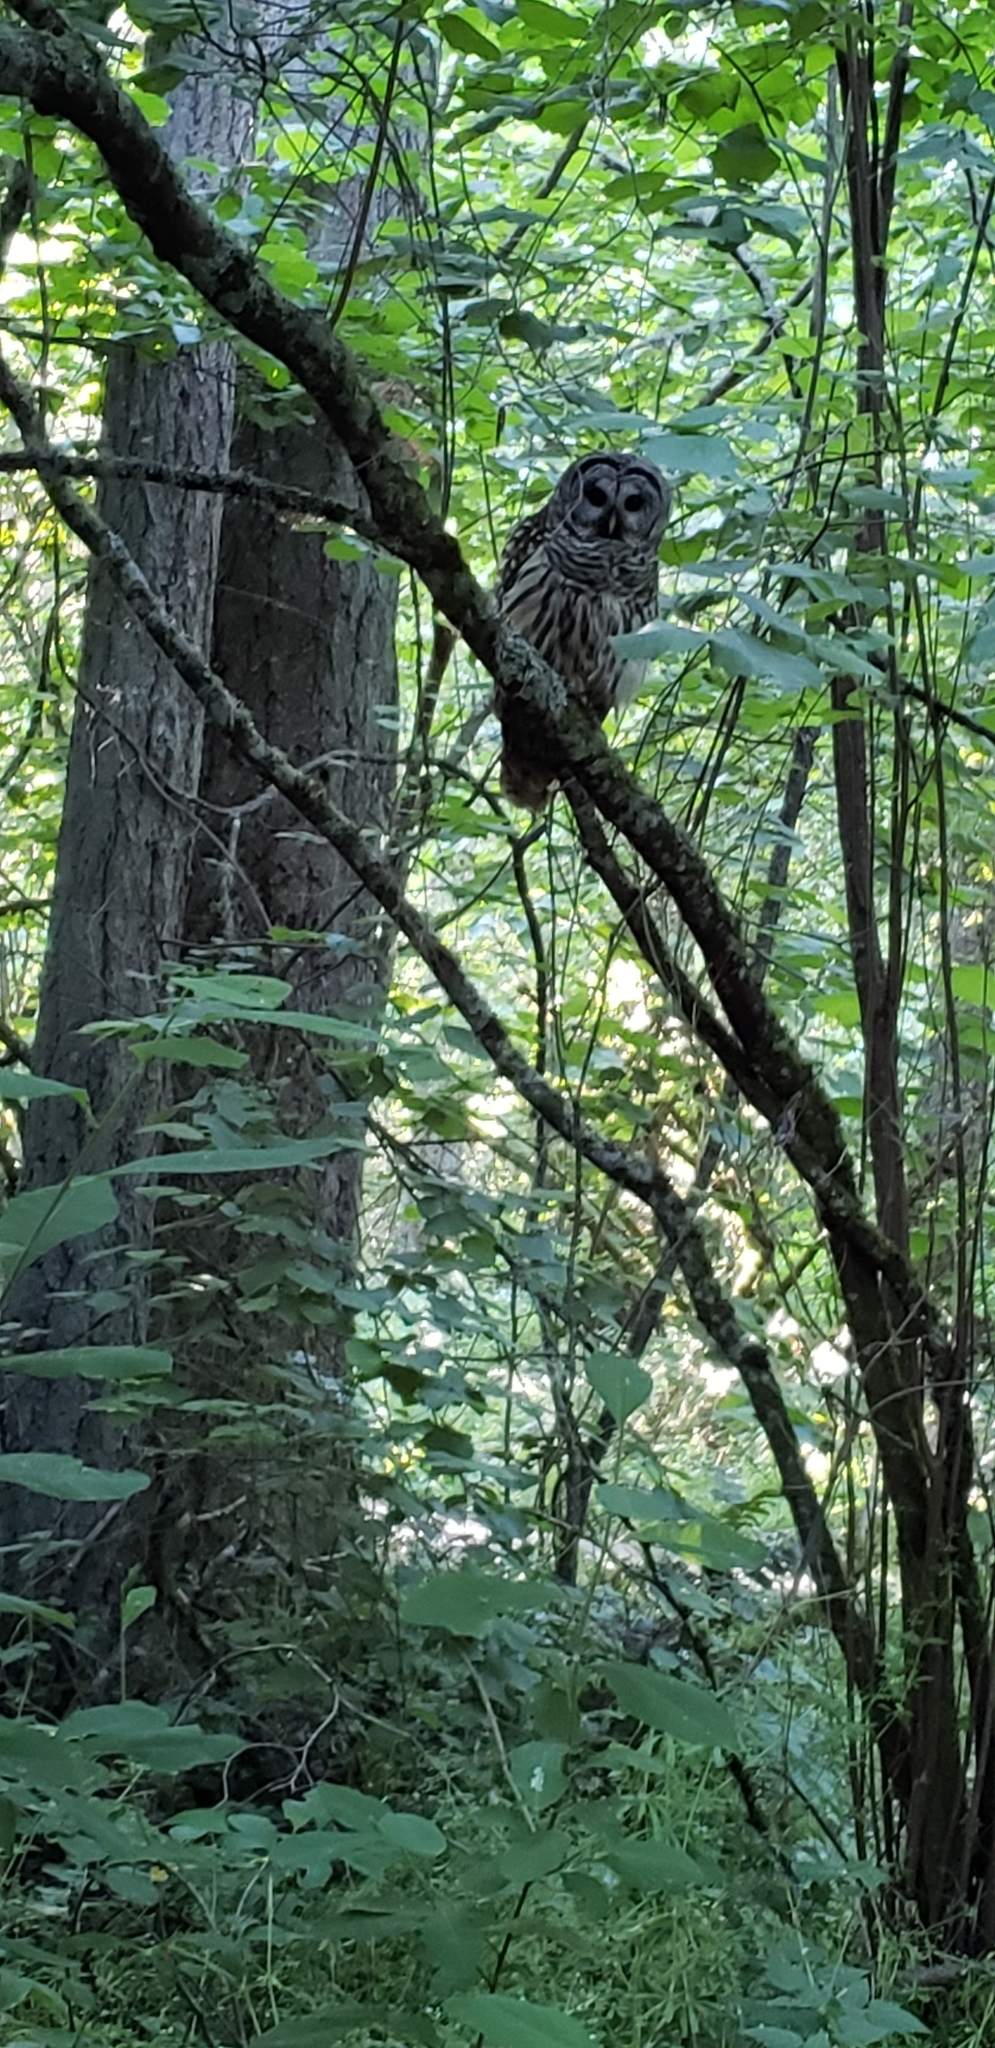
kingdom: Animalia
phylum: Chordata
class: Aves
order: Strigiformes
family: Strigidae
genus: Strix
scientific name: Strix varia
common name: Barred owl
